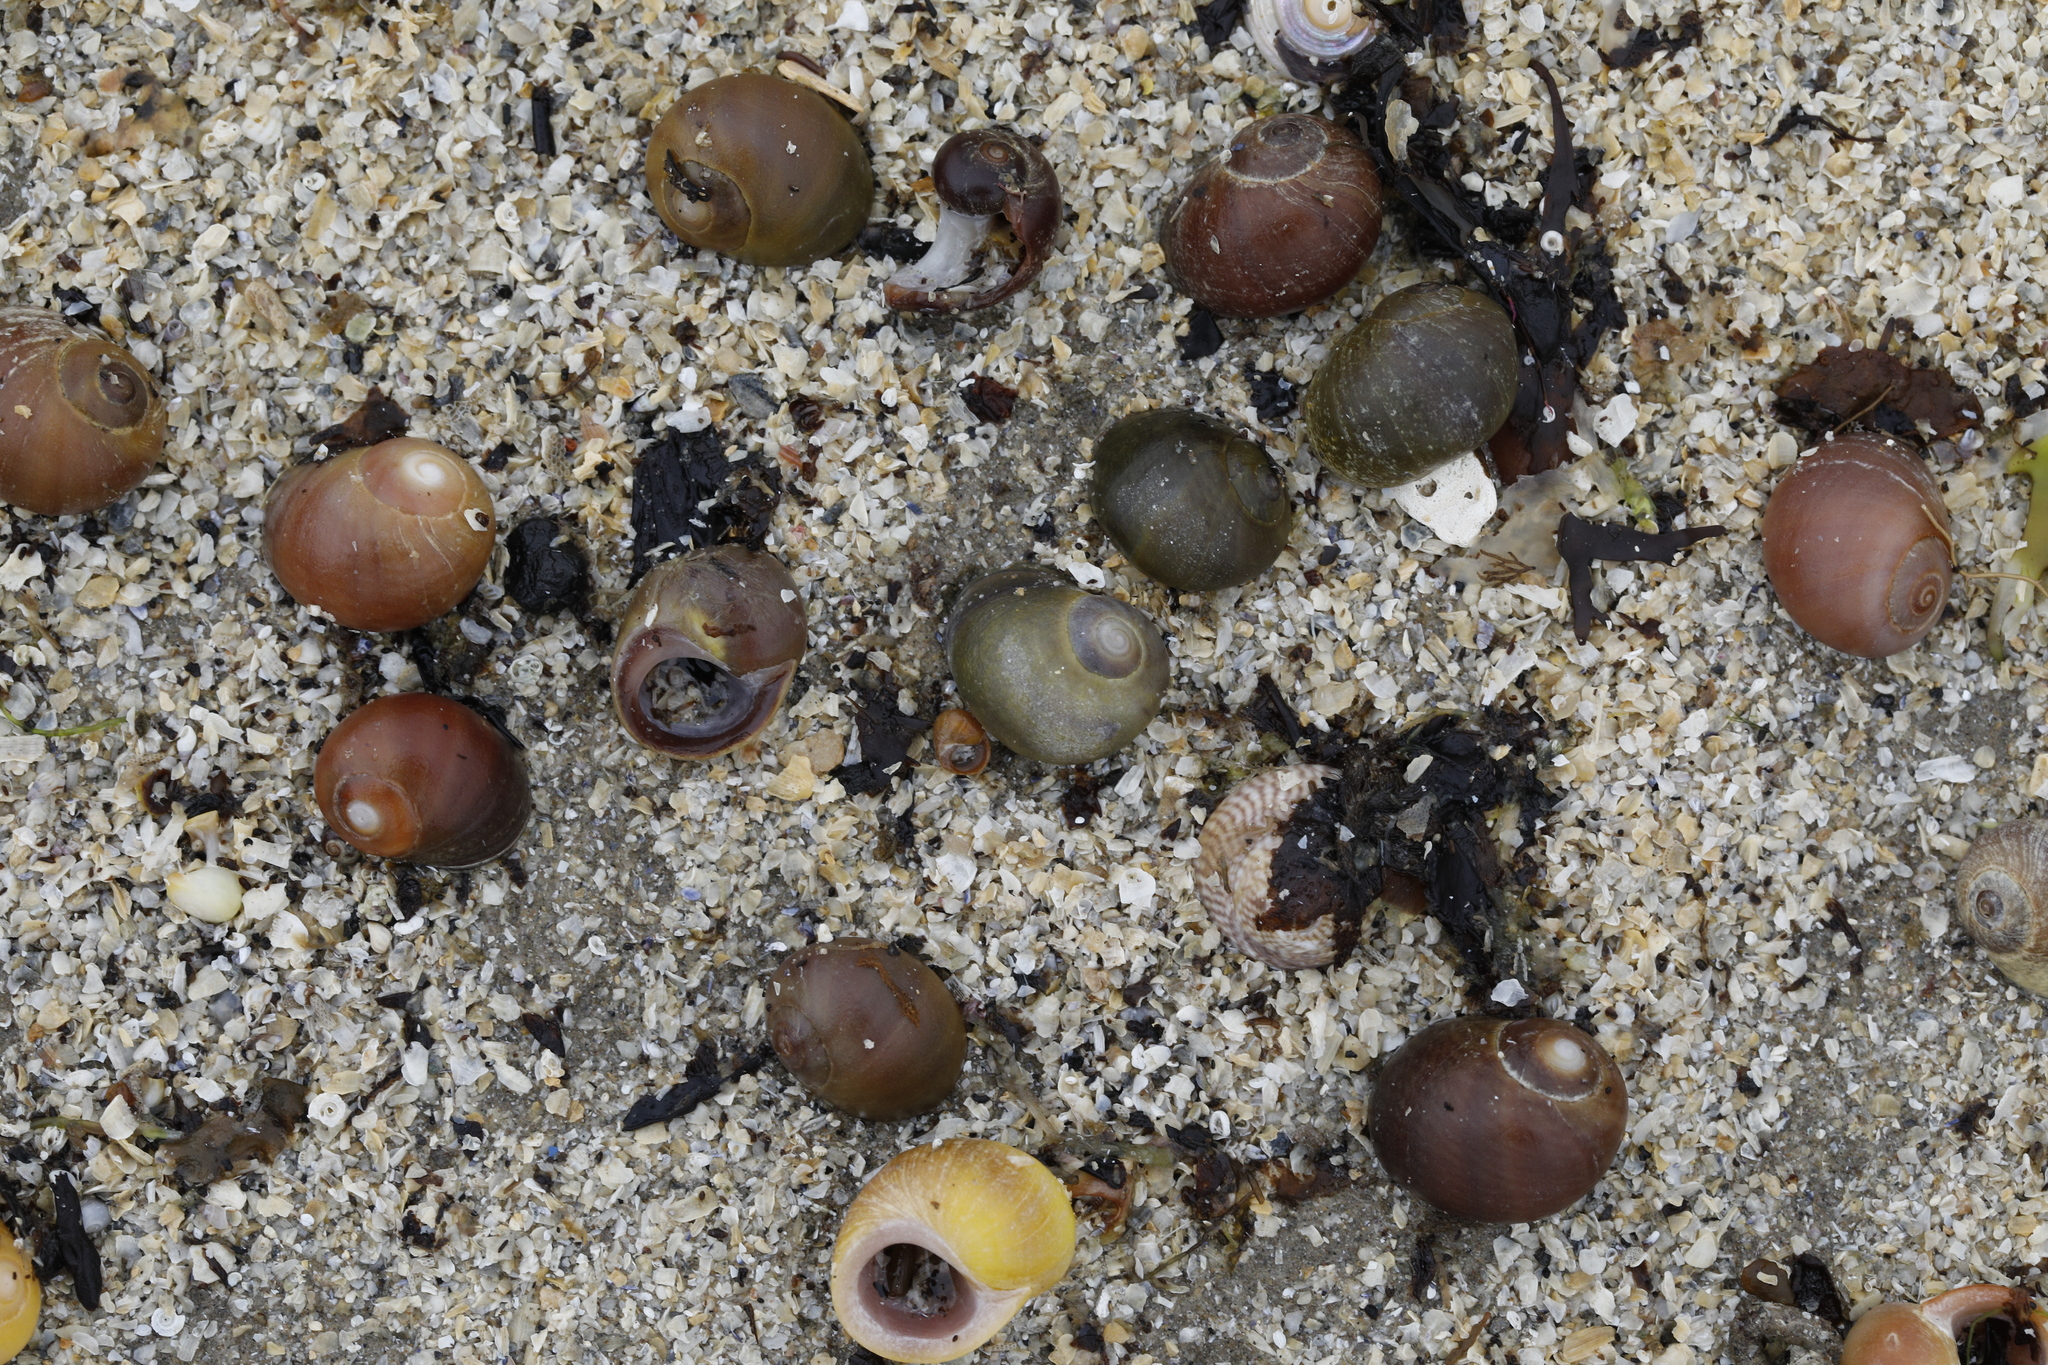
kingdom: Animalia
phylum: Mollusca
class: Gastropoda
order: Littorinimorpha
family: Littorinidae
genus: Littorina
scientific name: Littorina obtusata
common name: Flat periwinkle
